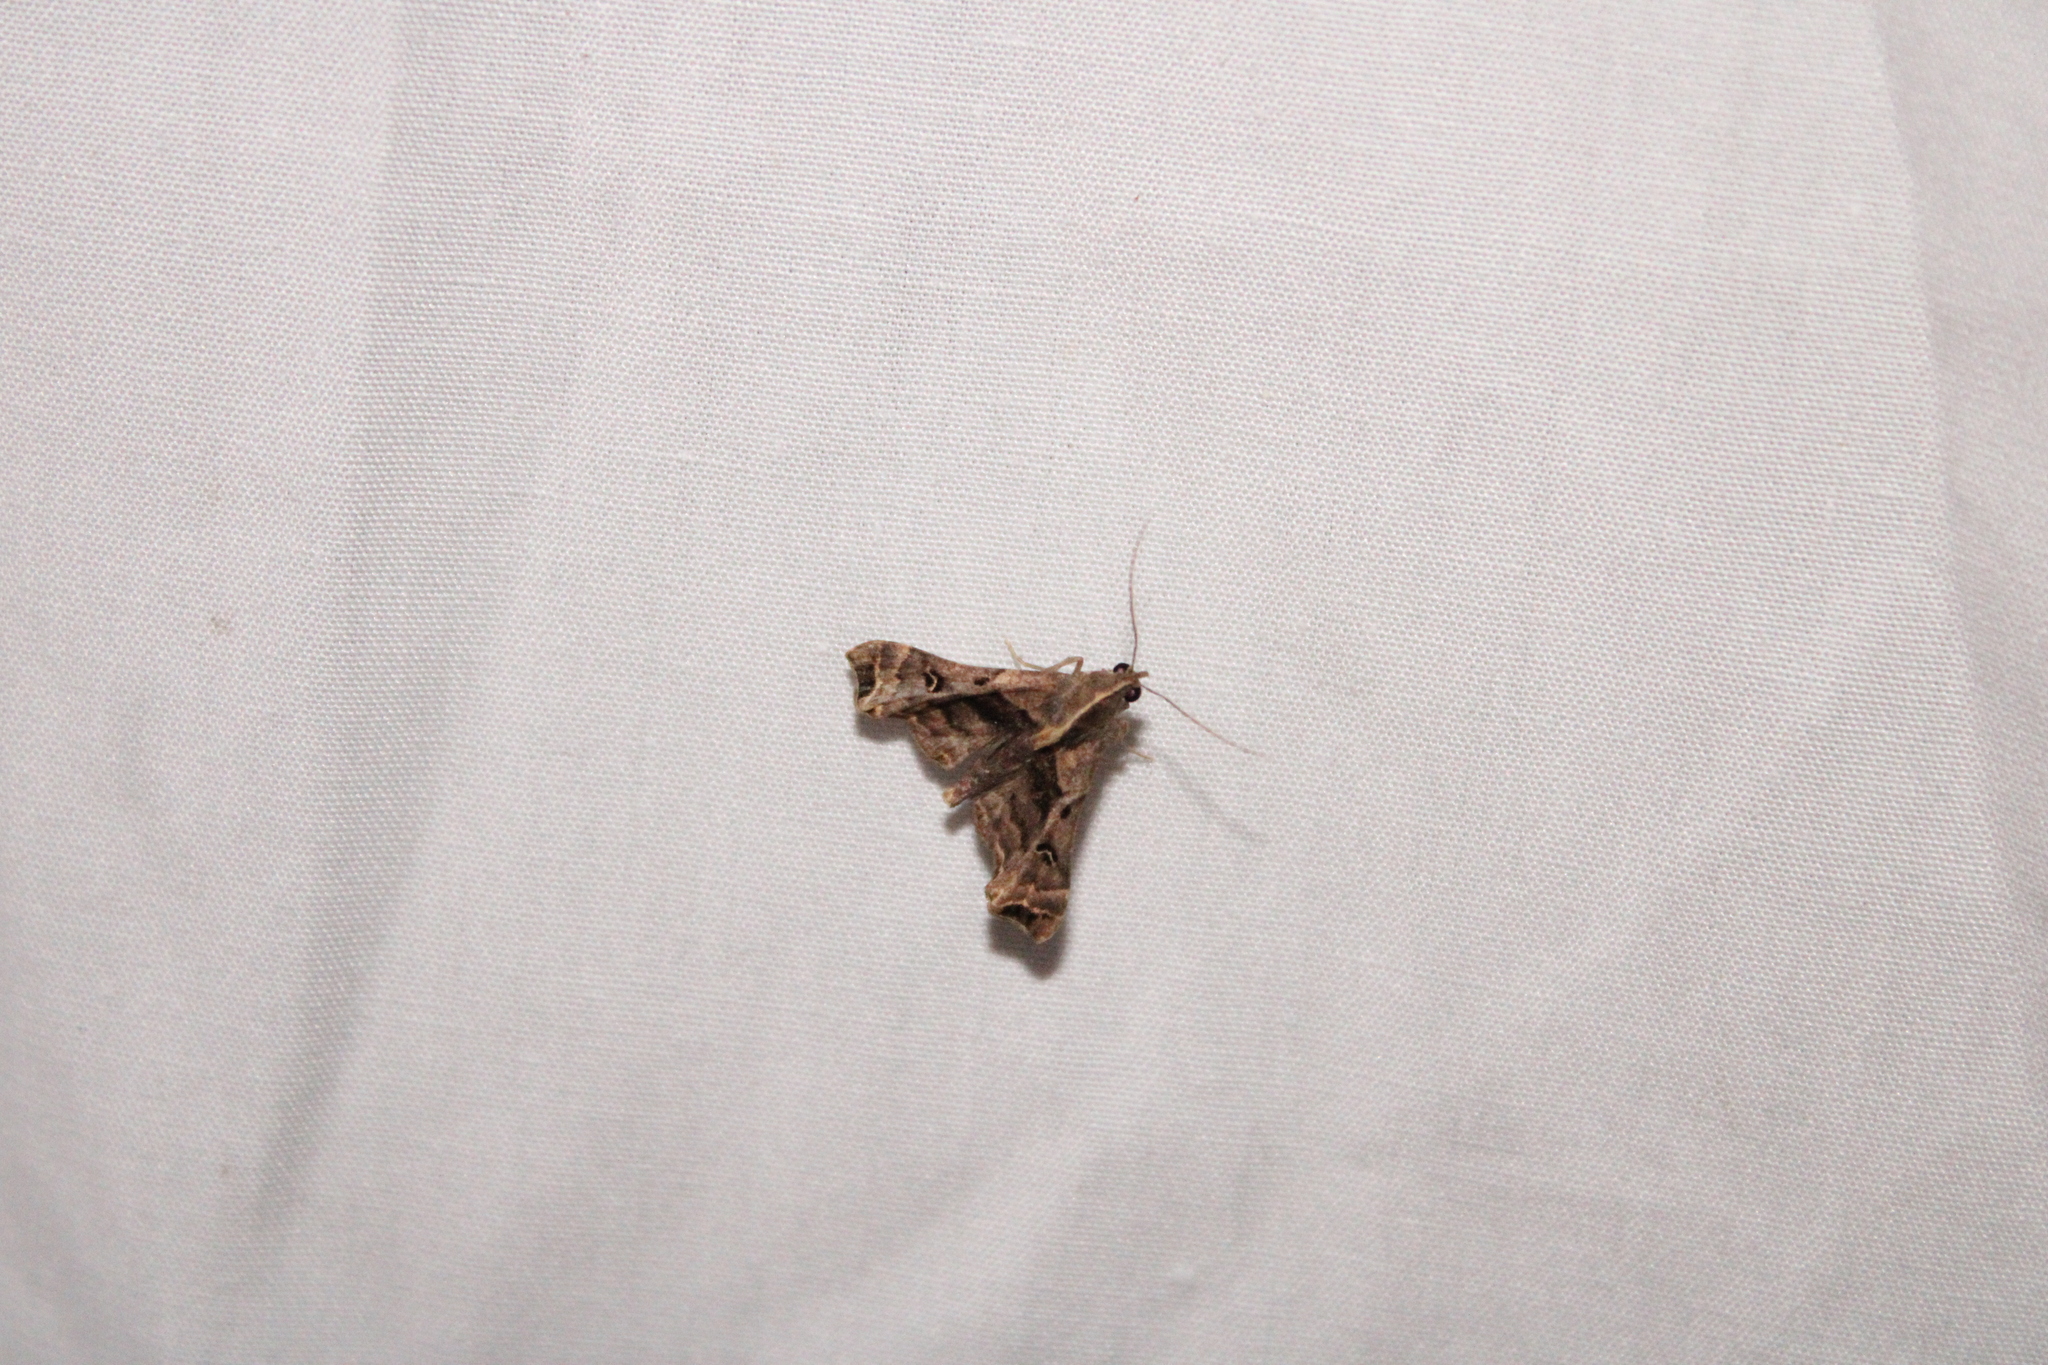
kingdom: Animalia
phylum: Arthropoda
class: Insecta
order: Lepidoptera
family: Erebidae
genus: Palthis
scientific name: Palthis asopialis
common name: Faint-spotted palthis moth
